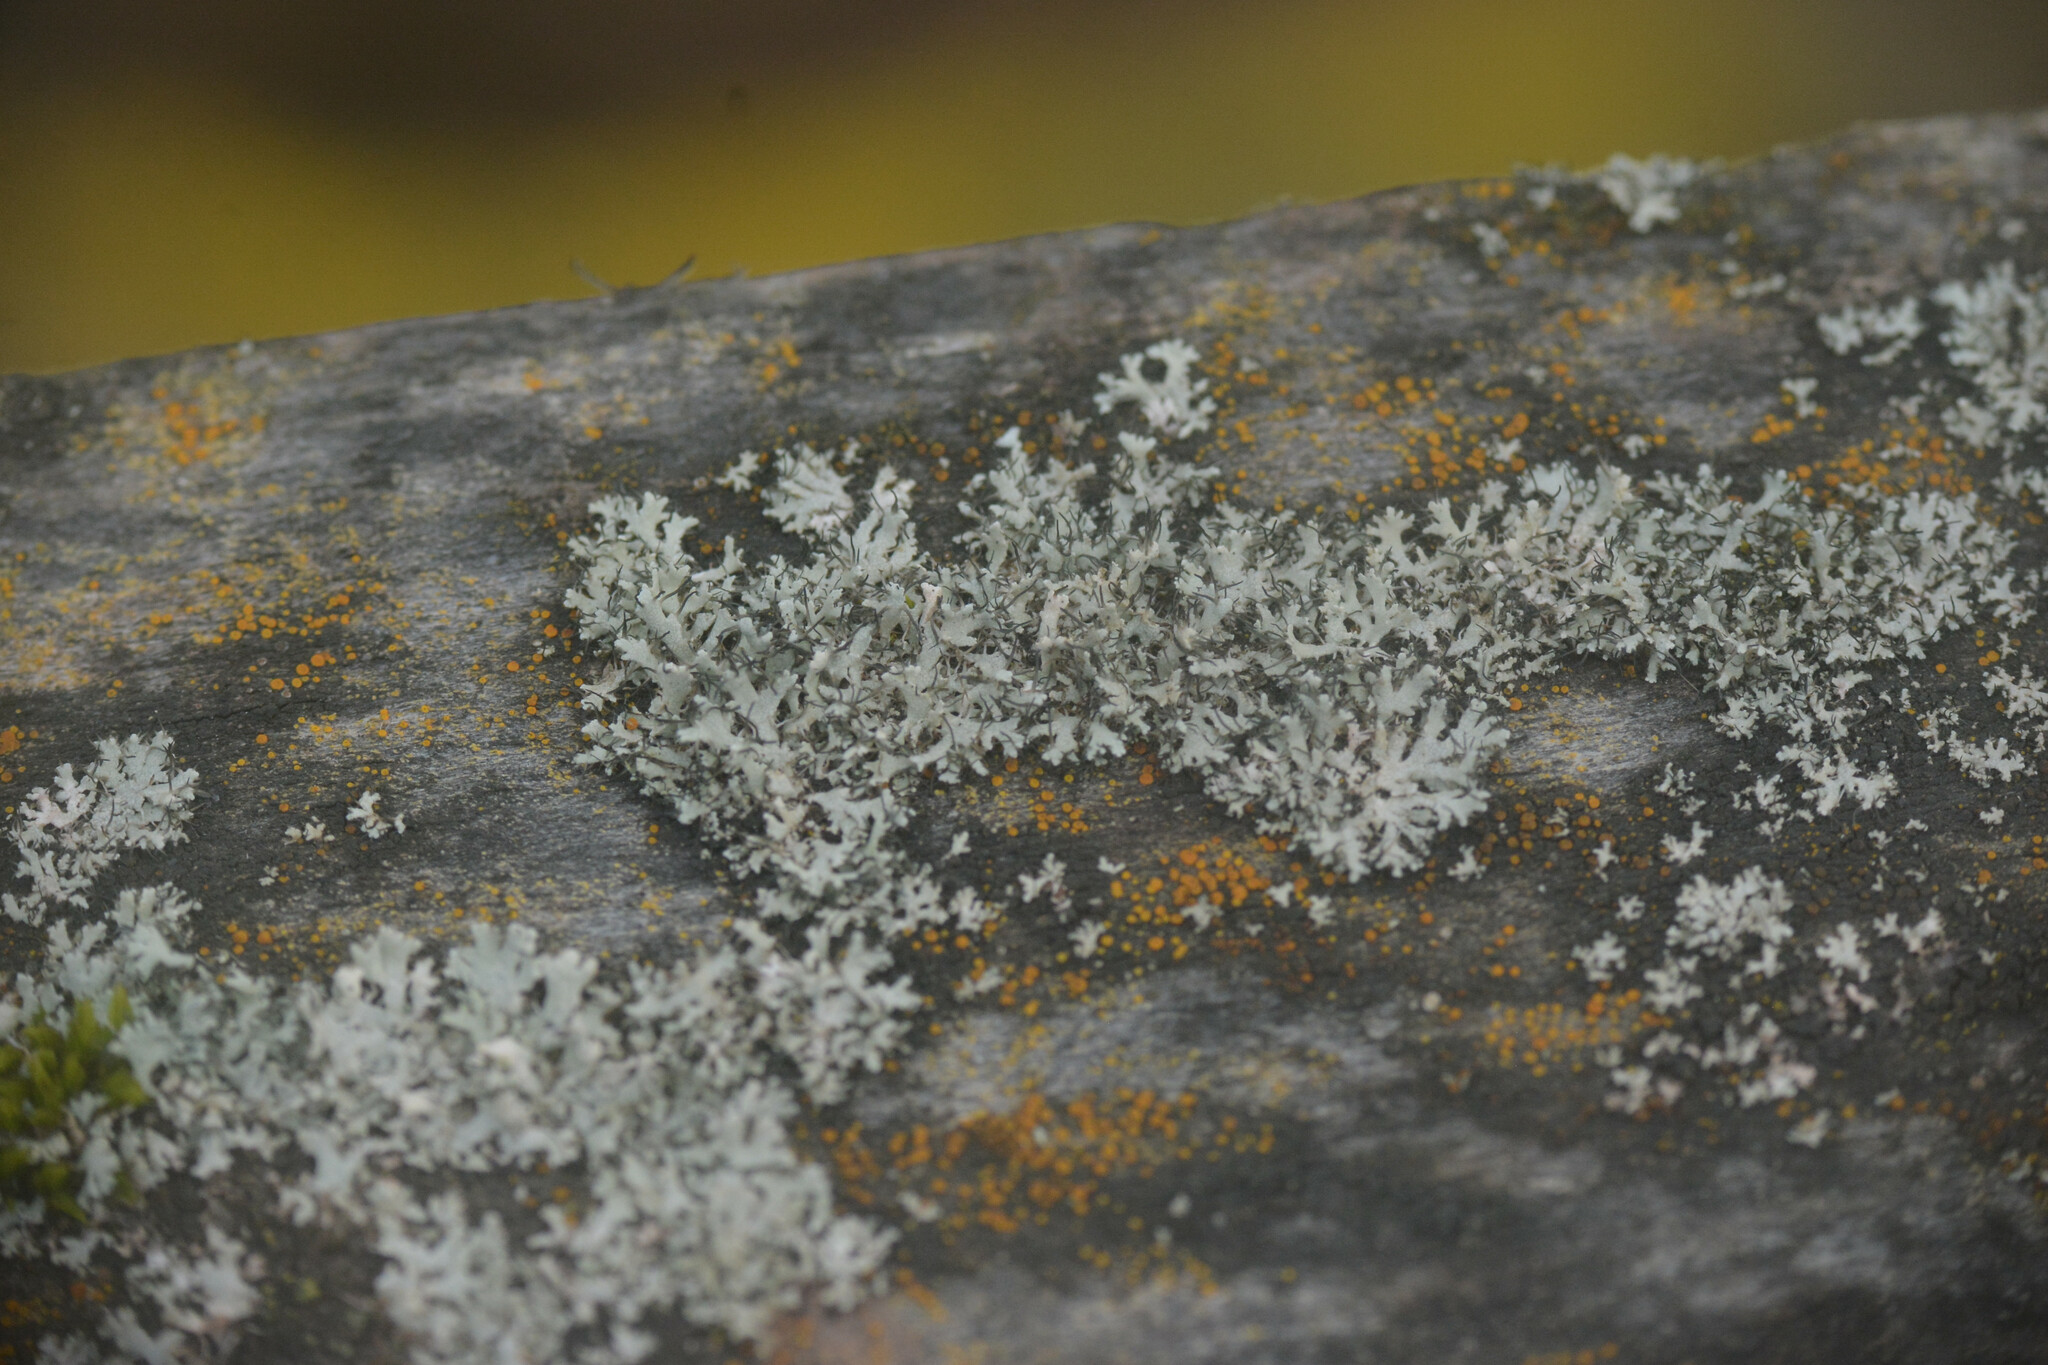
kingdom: Fungi
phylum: Ascomycota
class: Lecanoromycetes
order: Caliciales
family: Physciaceae
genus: Physcia
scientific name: Physcia adscendens
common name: Hooded rosette lichen
